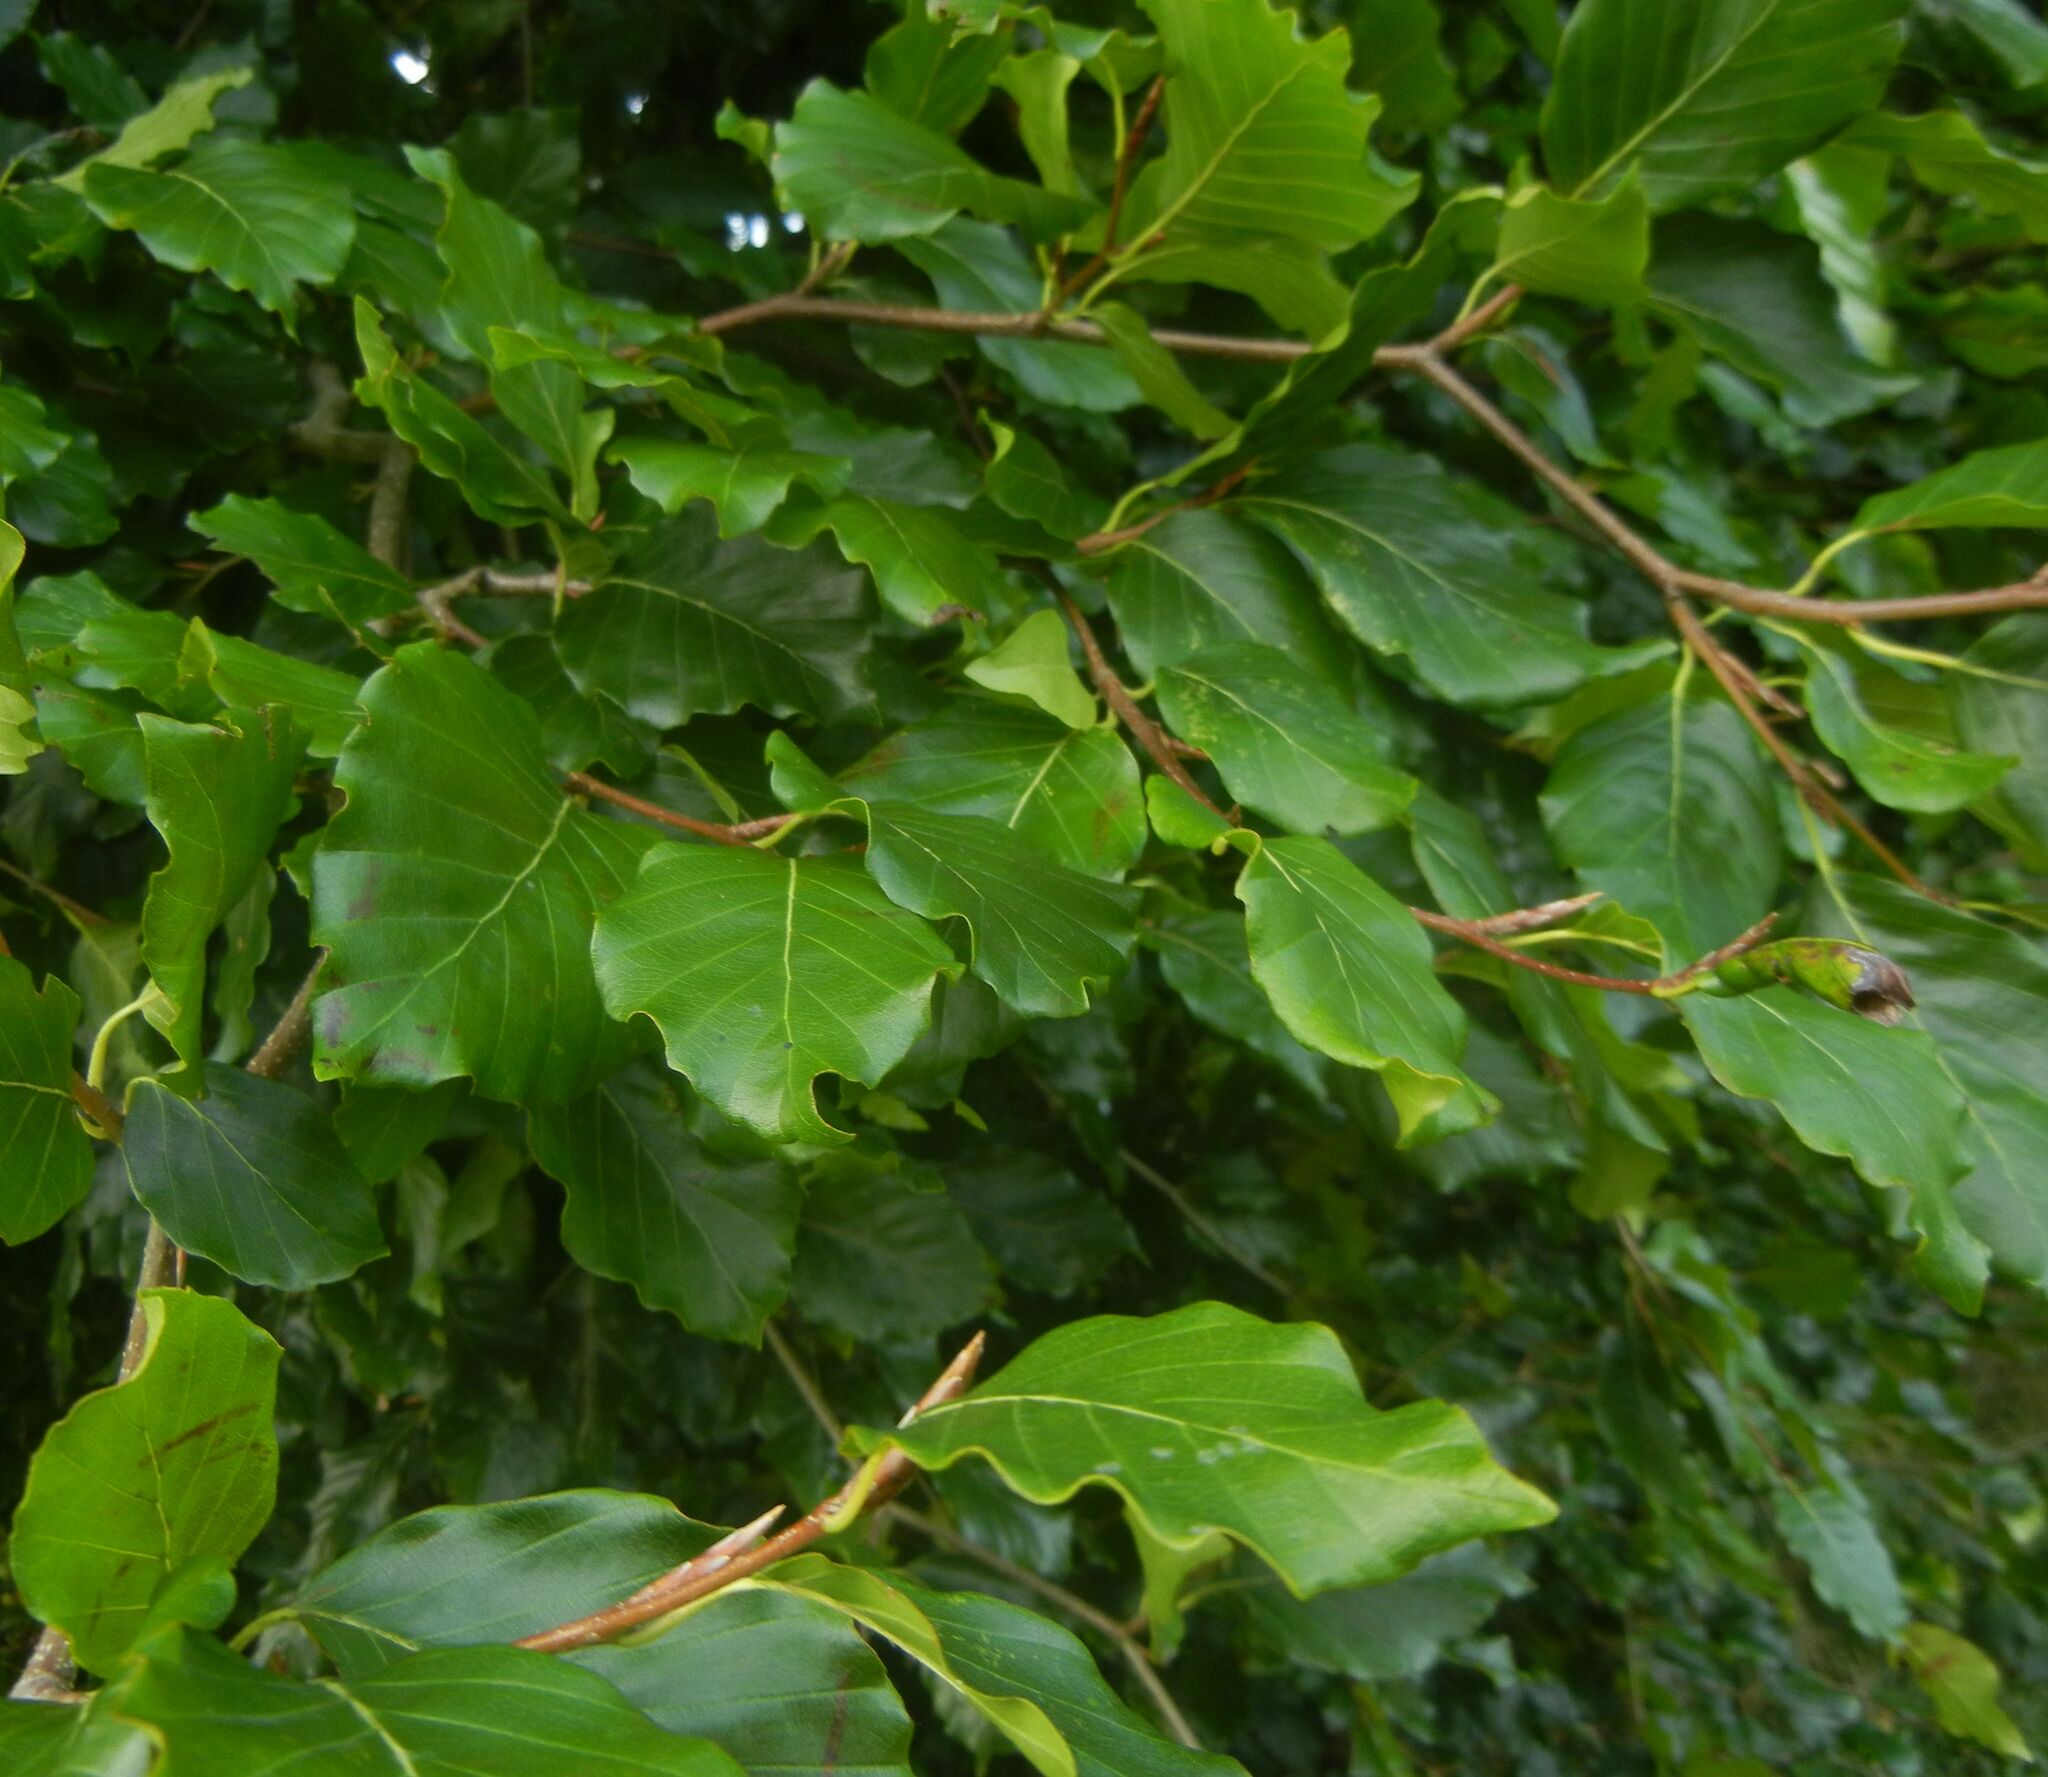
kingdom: Plantae
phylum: Tracheophyta
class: Magnoliopsida
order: Fagales
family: Fagaceae
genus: Fagus
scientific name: Fagus sylvatica
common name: Beech
